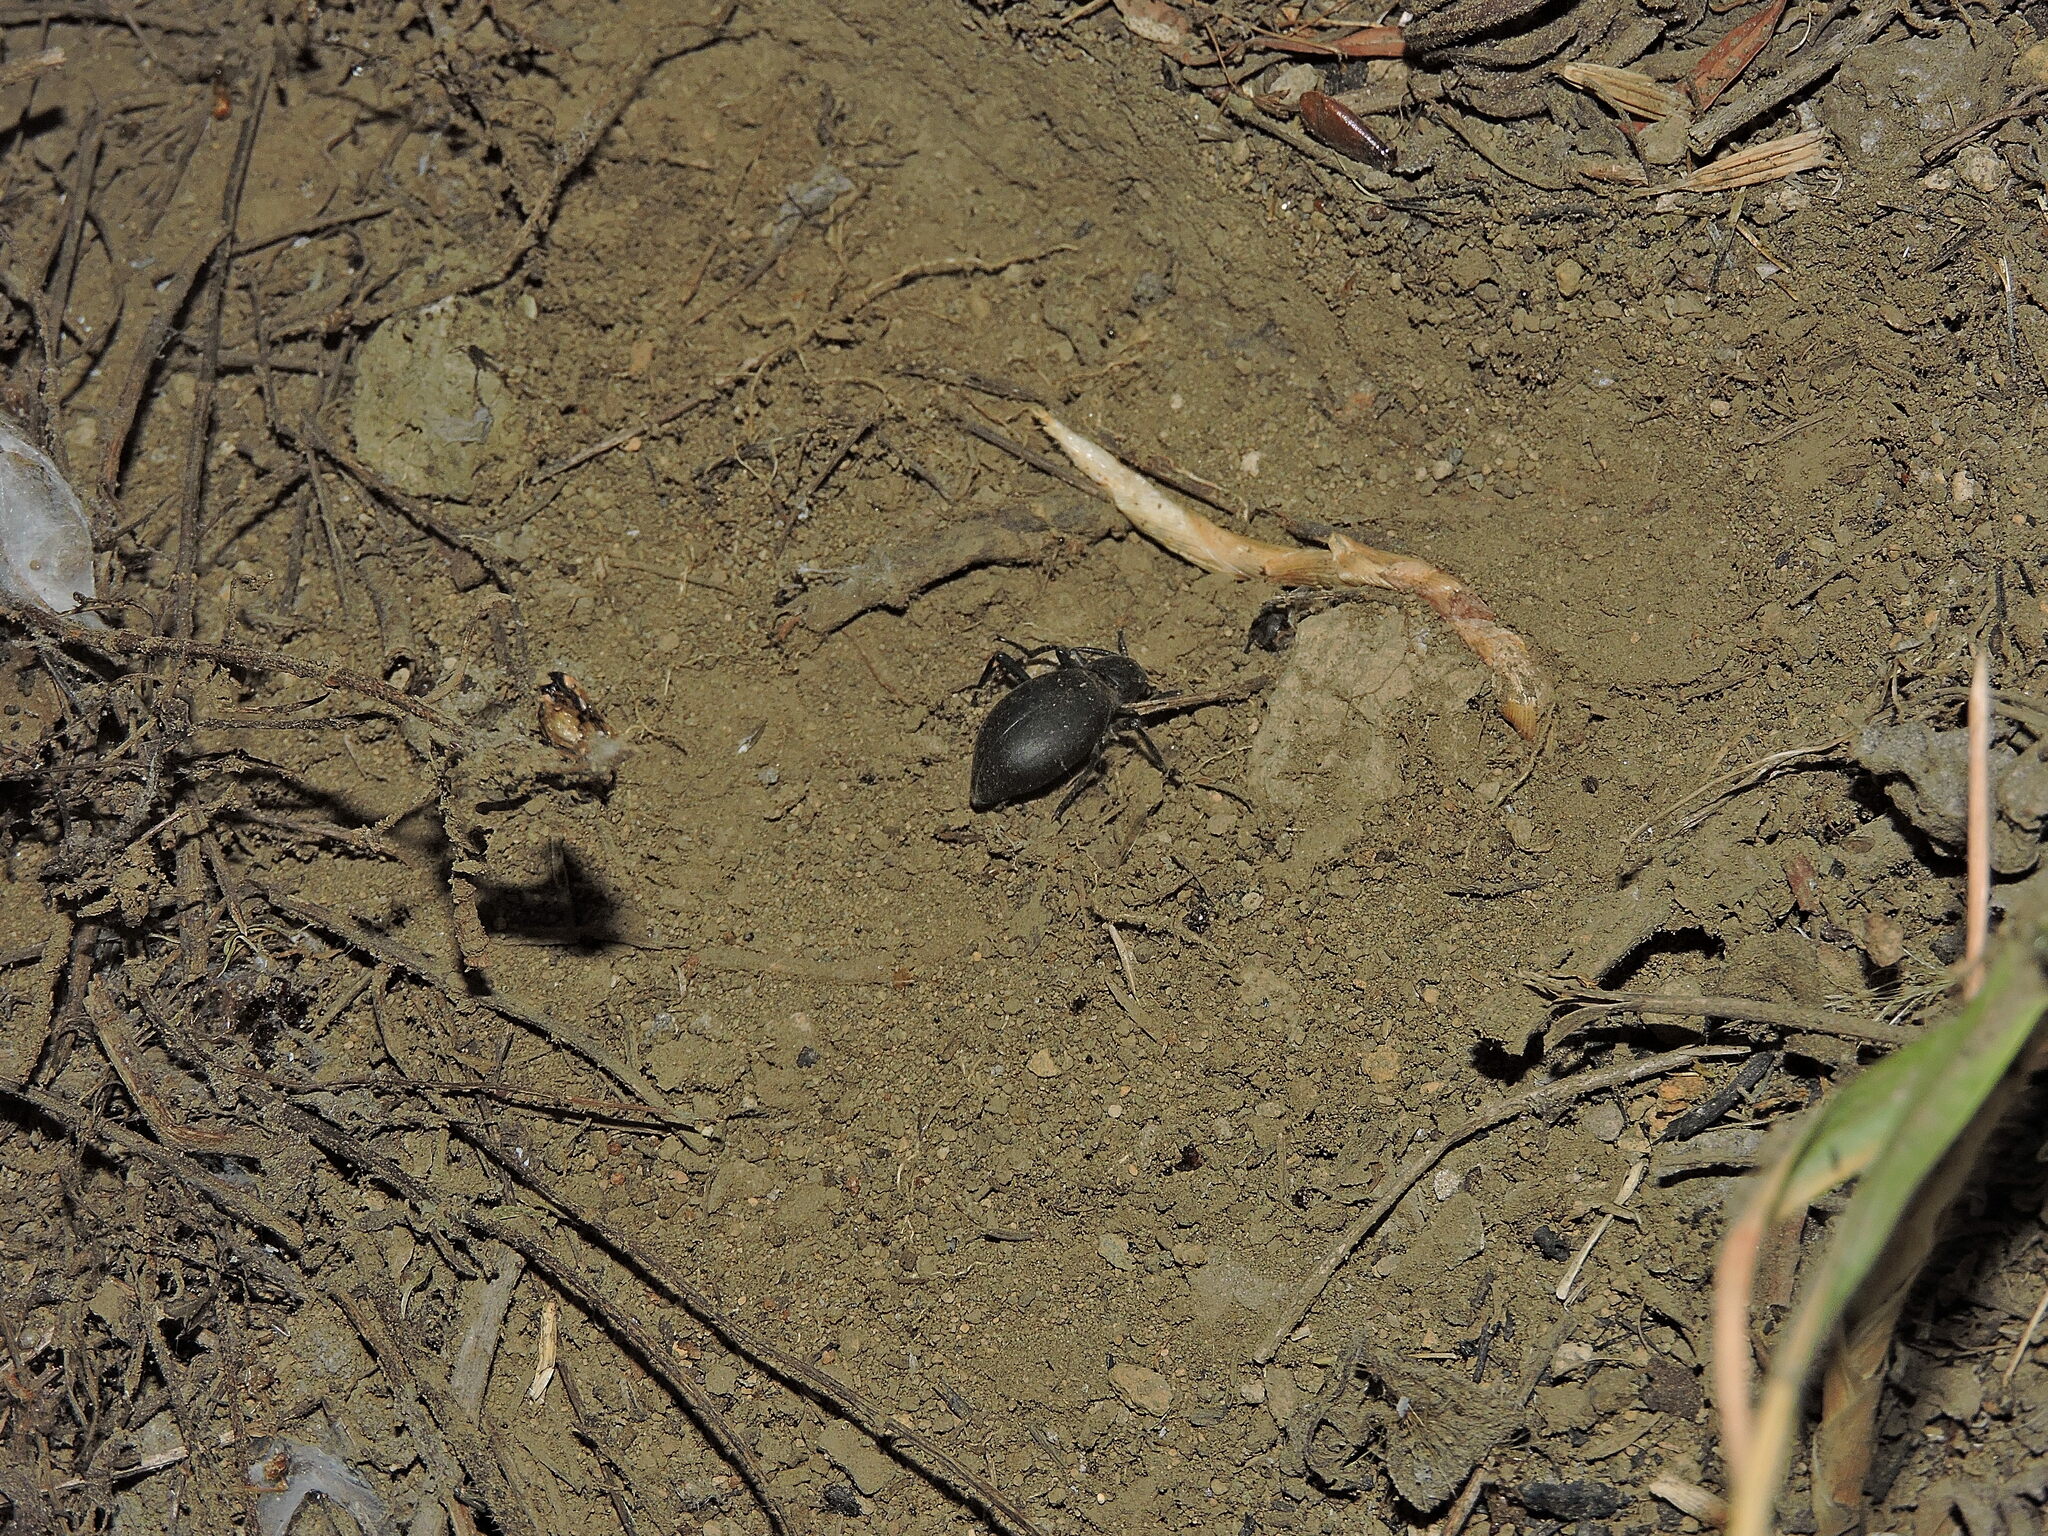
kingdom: Animalia
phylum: Arthropoda
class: Insecta
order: Coleoptera
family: Tenebrionidae
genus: Eleodes
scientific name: Eleodes spinolae
